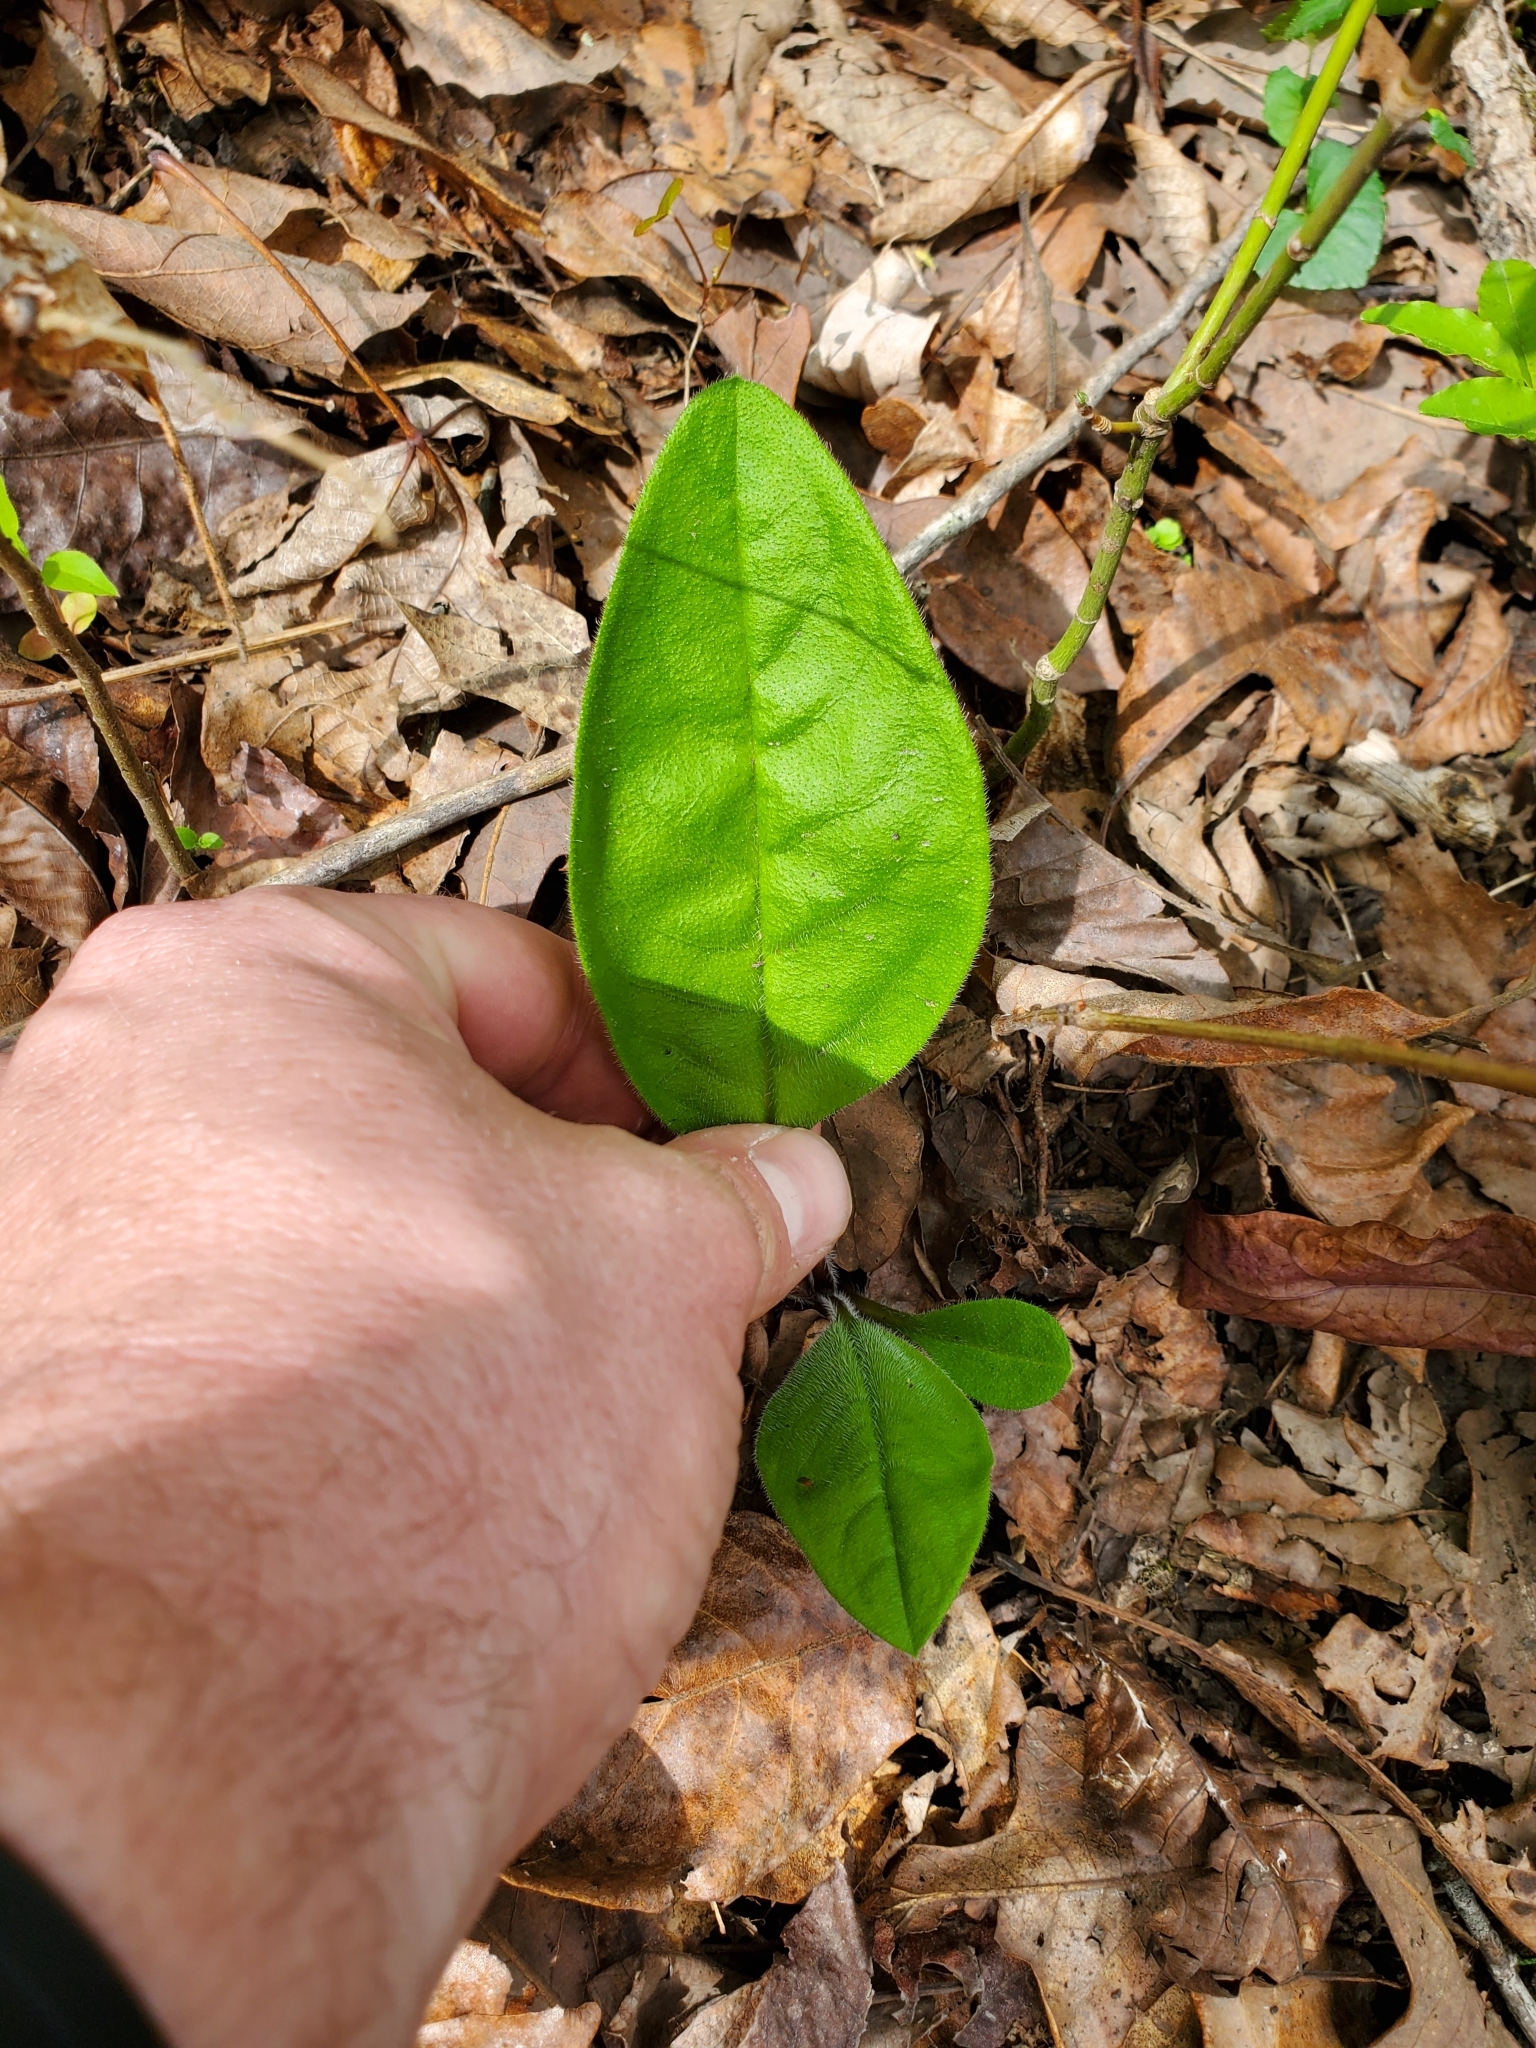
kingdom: Plantae
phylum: Tracheophyta
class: Magnoliopsida
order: Boraginales
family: Boraginaceae
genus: Andersonglossum
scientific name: Andersonglossum virginianum
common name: Wild comfrey
